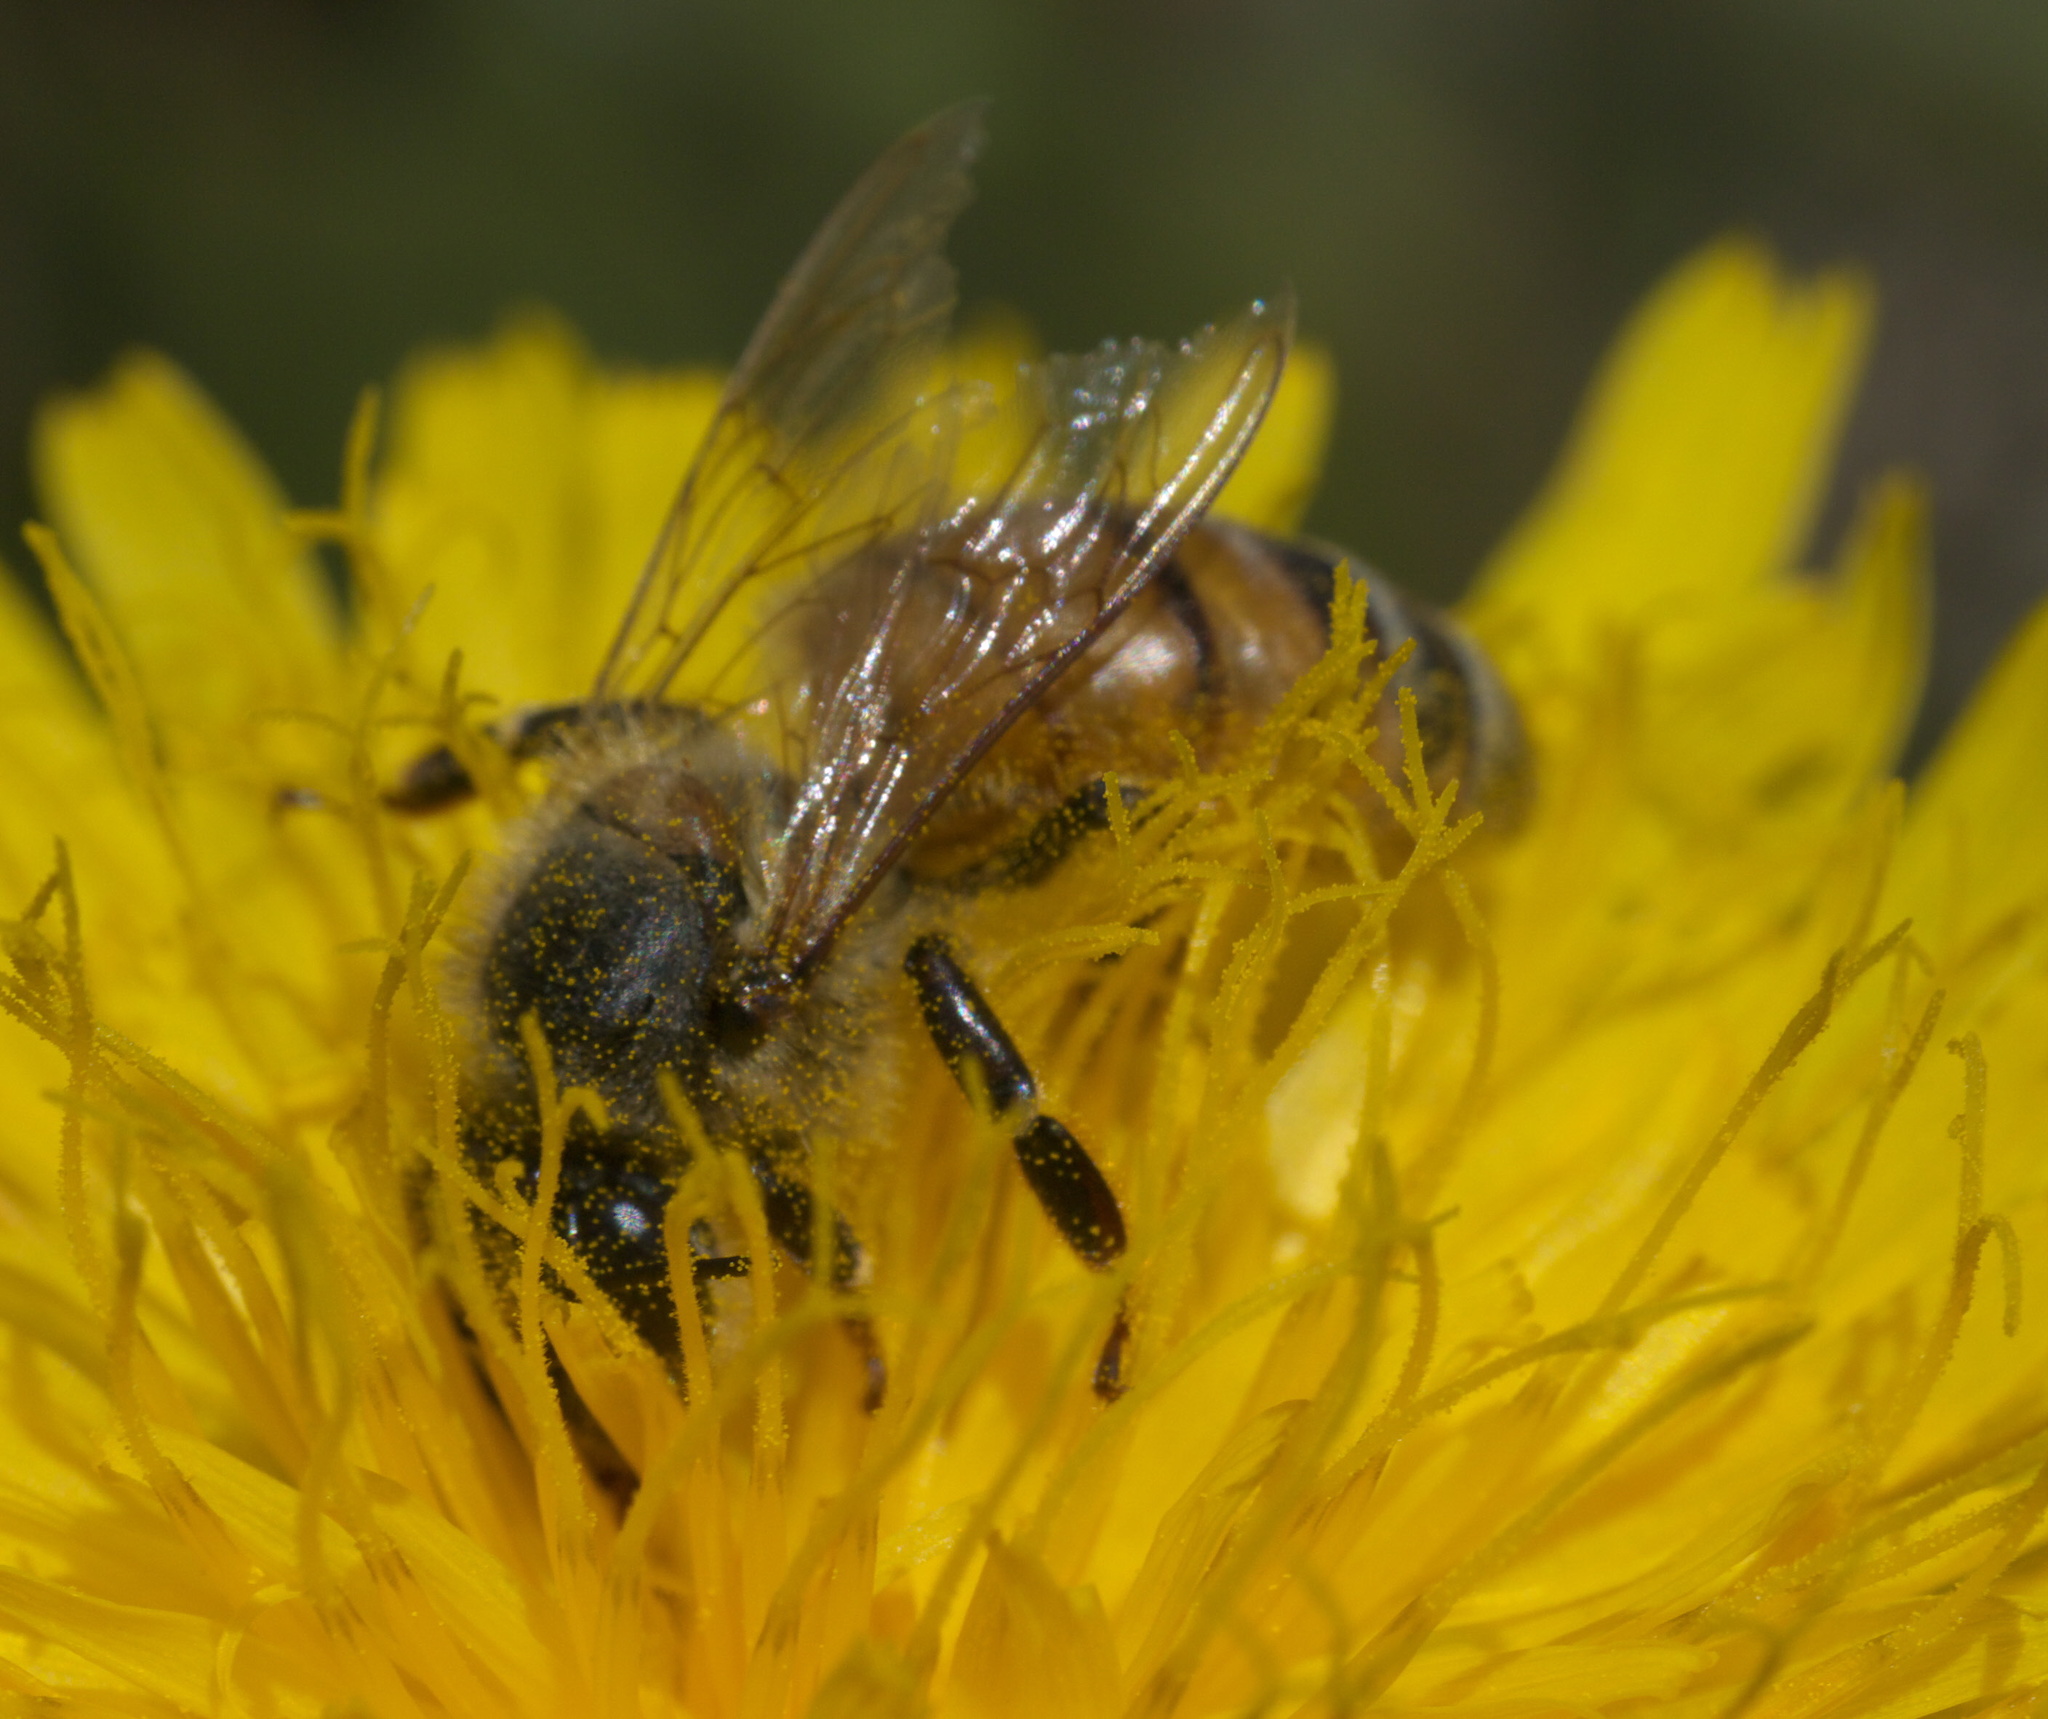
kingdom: Animalia
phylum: Arthropoda
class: Insecta
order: Hymenoptera
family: Apidae
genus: Apis
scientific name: Apis mellifera
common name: Honey bee
